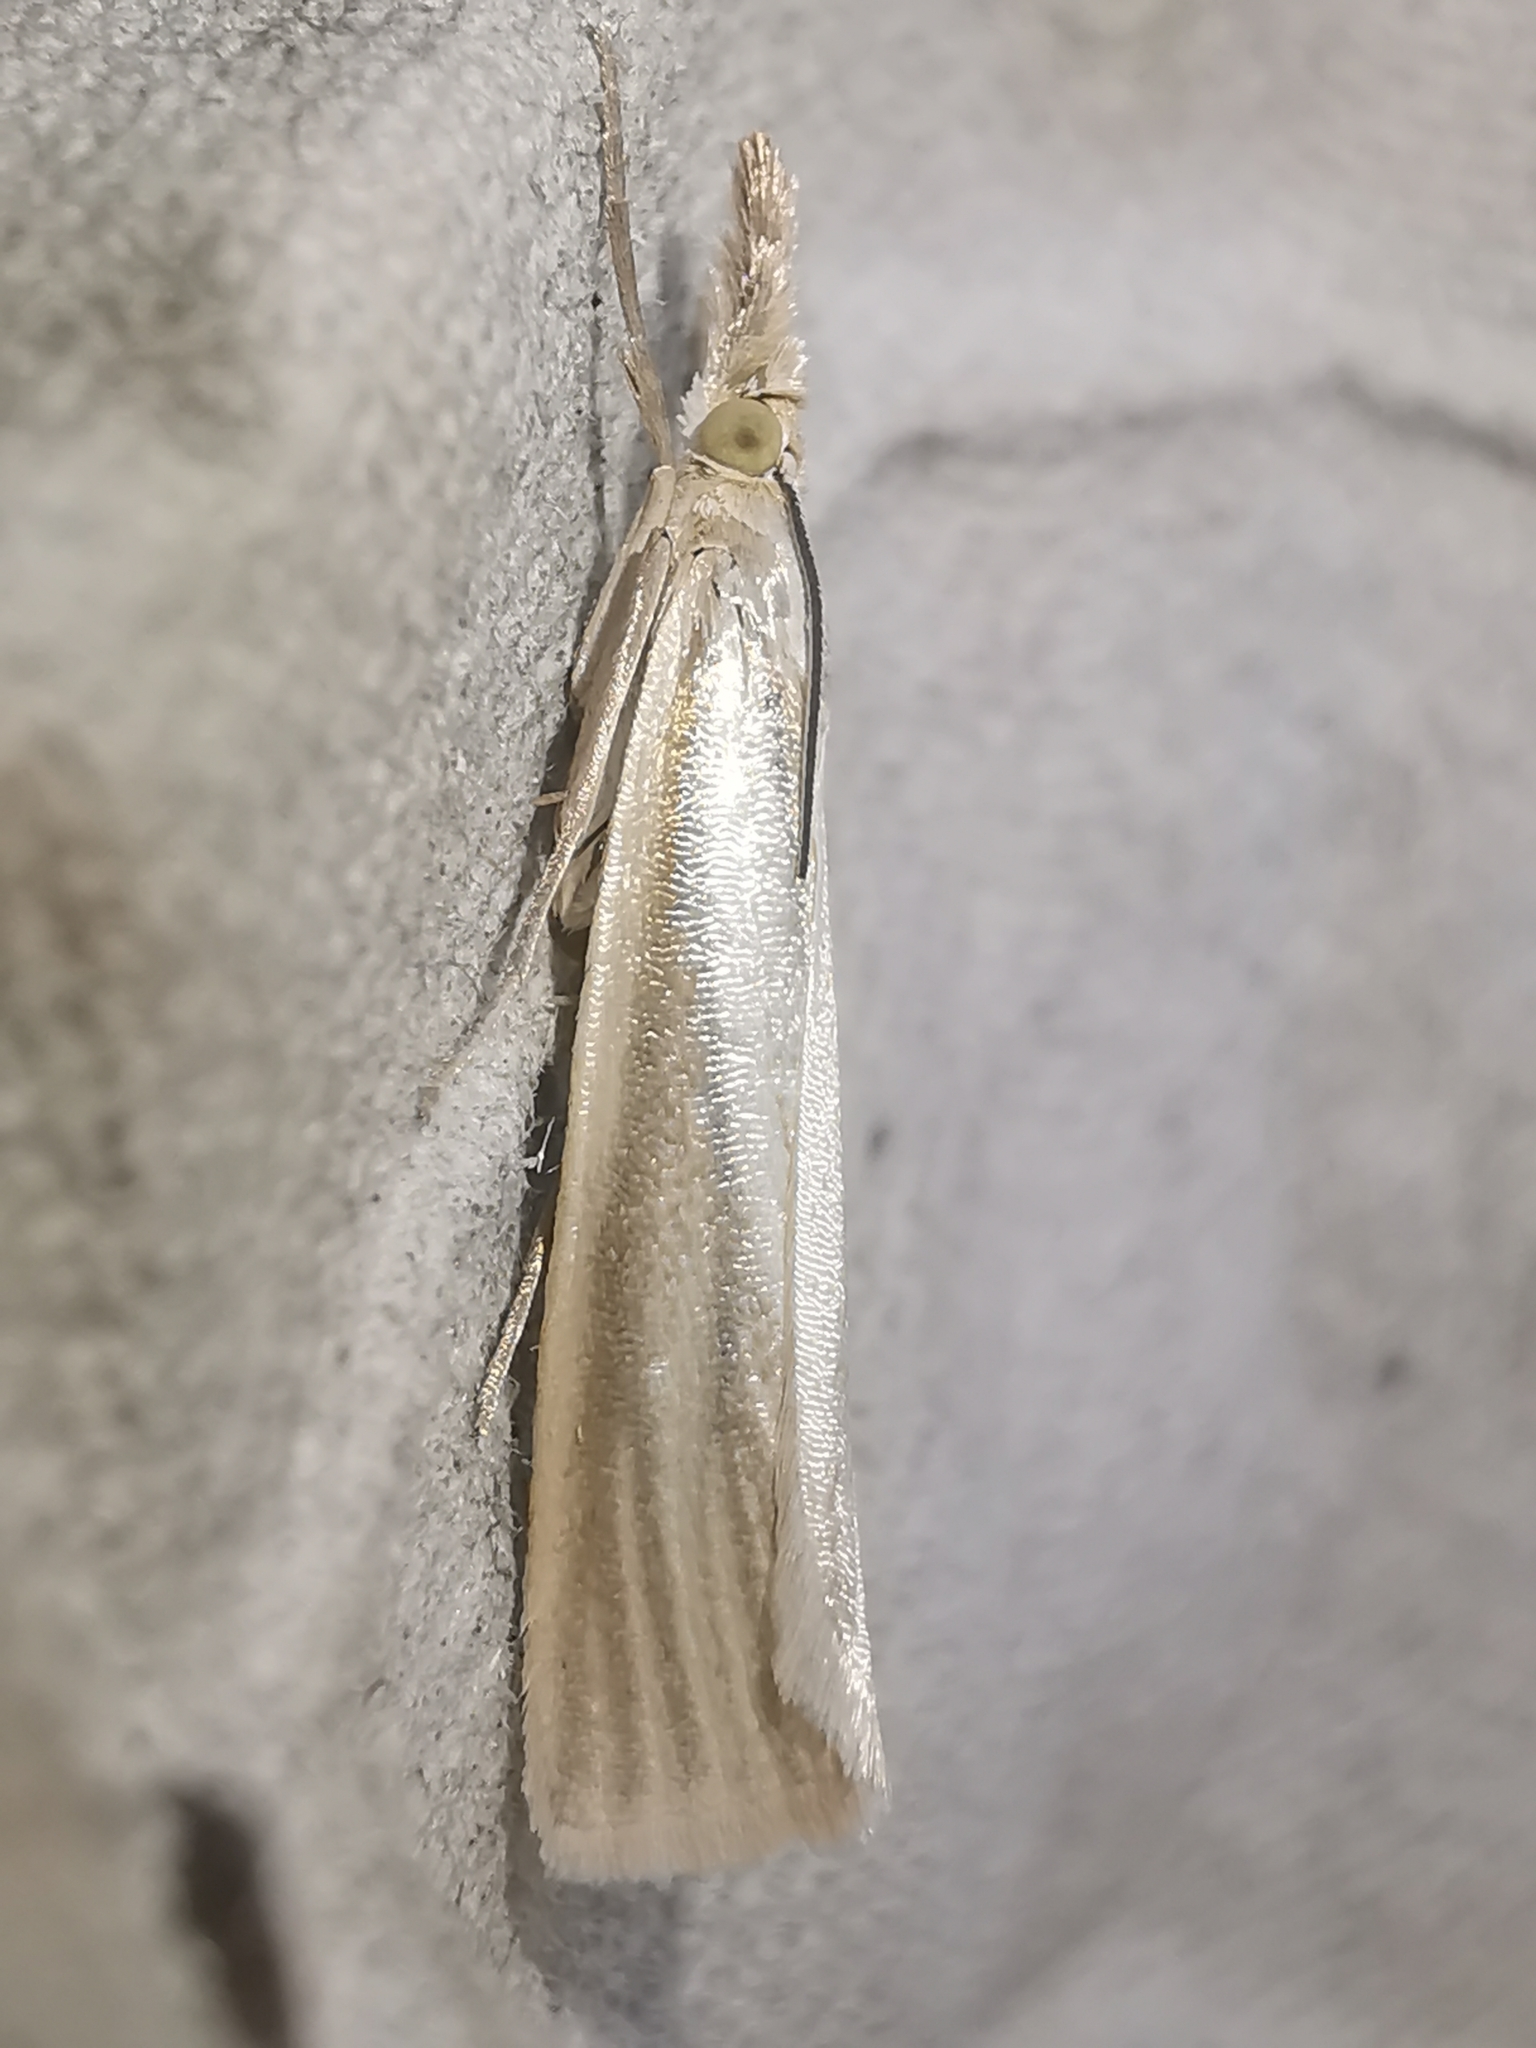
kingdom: Animalia
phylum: Arthropoda
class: Insecta
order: Lepidoptera
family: Crambidae
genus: Crambus
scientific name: Crambus perlellus
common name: Yellow satin veneer
